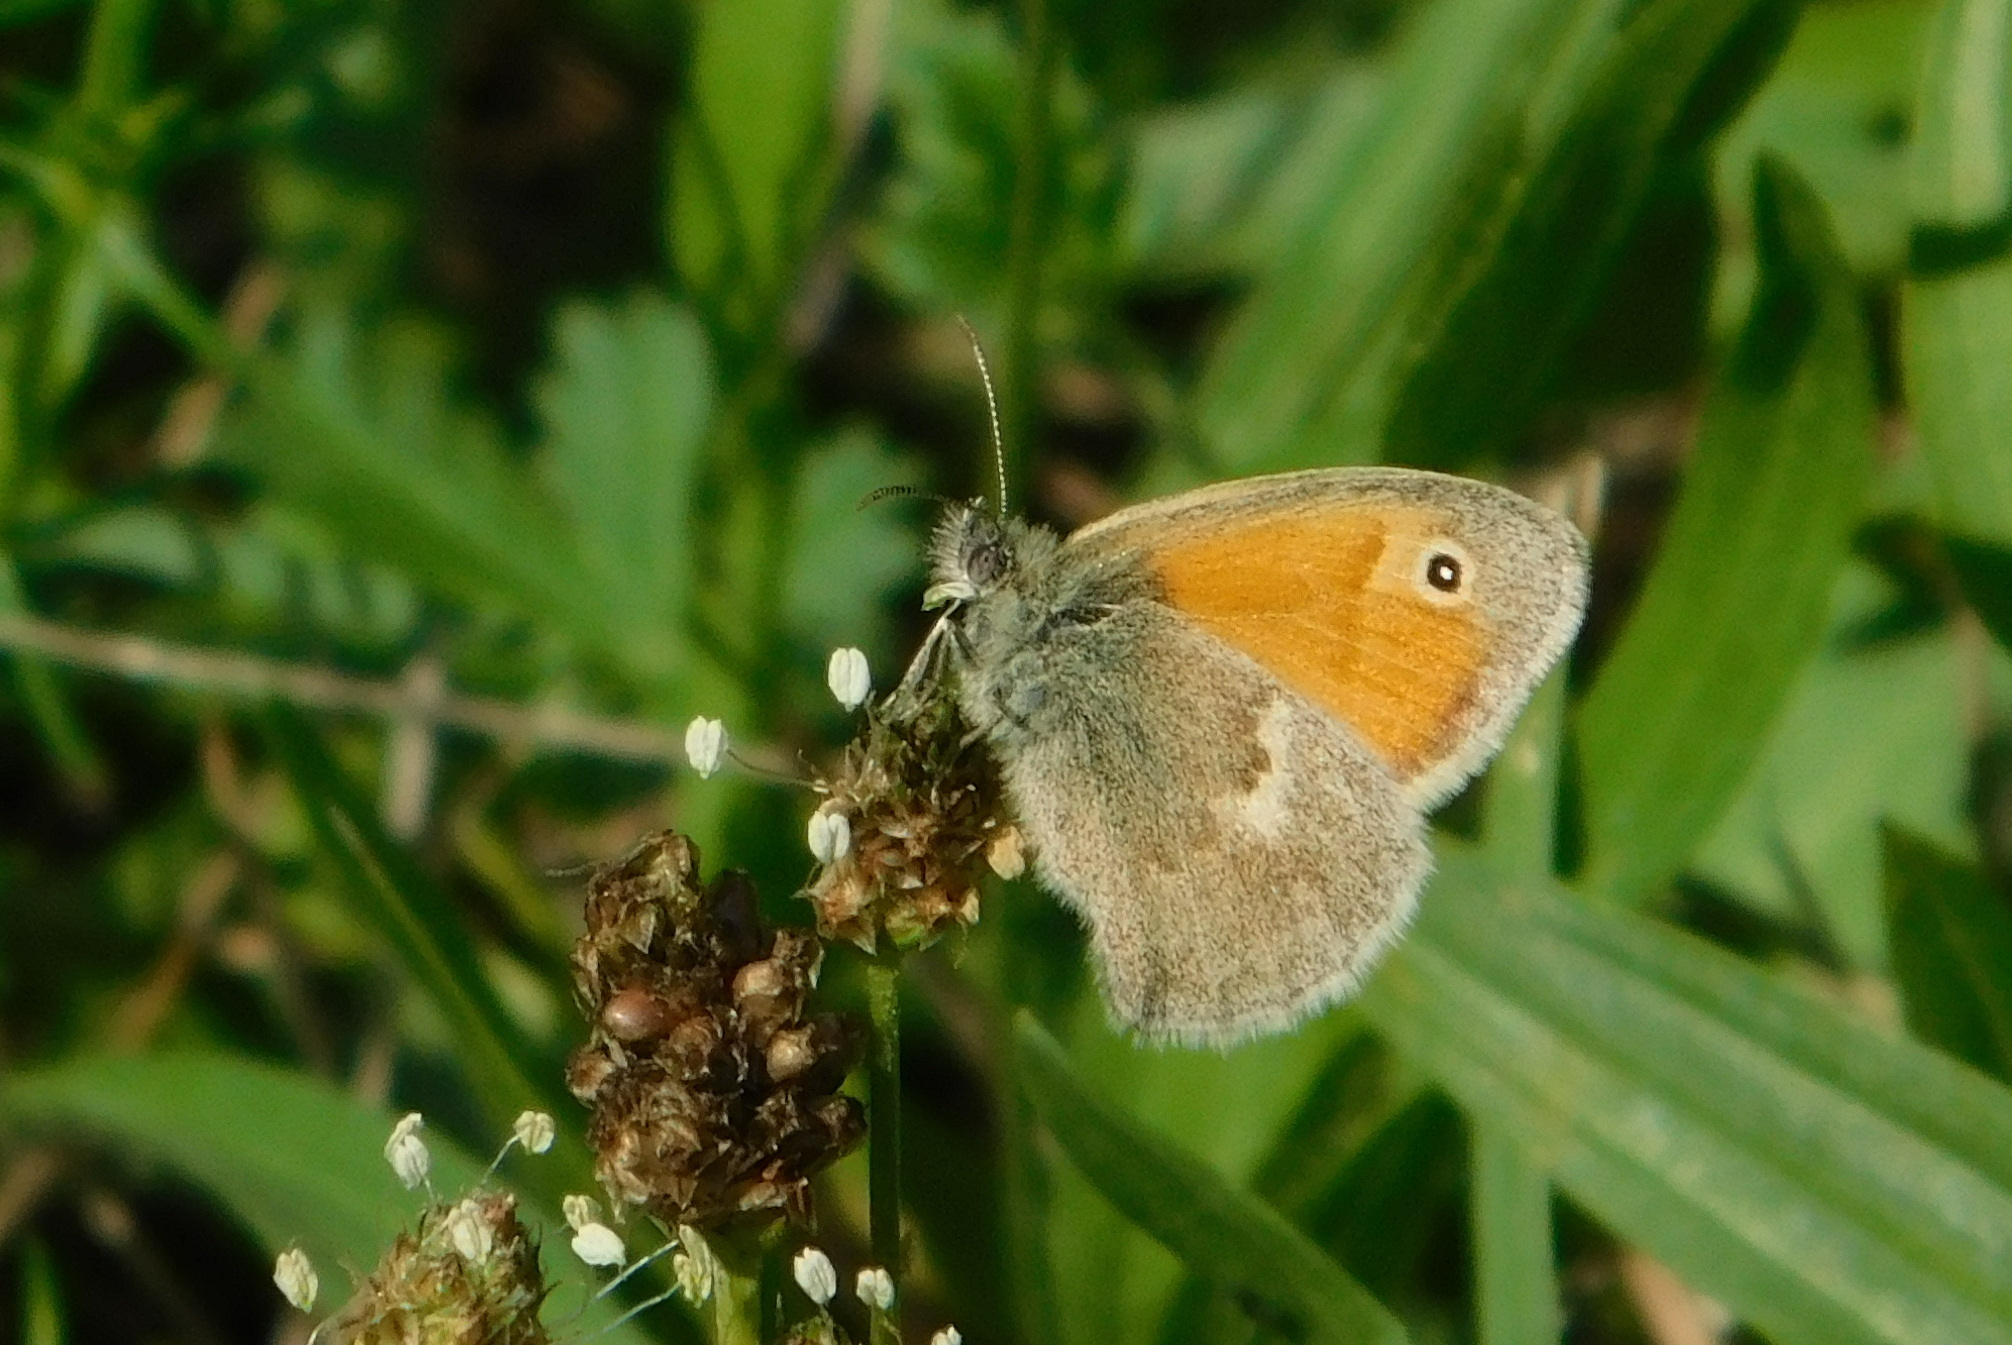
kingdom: Animalia
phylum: Arthropoda
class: Insecta
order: Lepidoptera
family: Nymphalidae
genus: Coenonympha
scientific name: Coenonympha pamphilus
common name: Small heath
